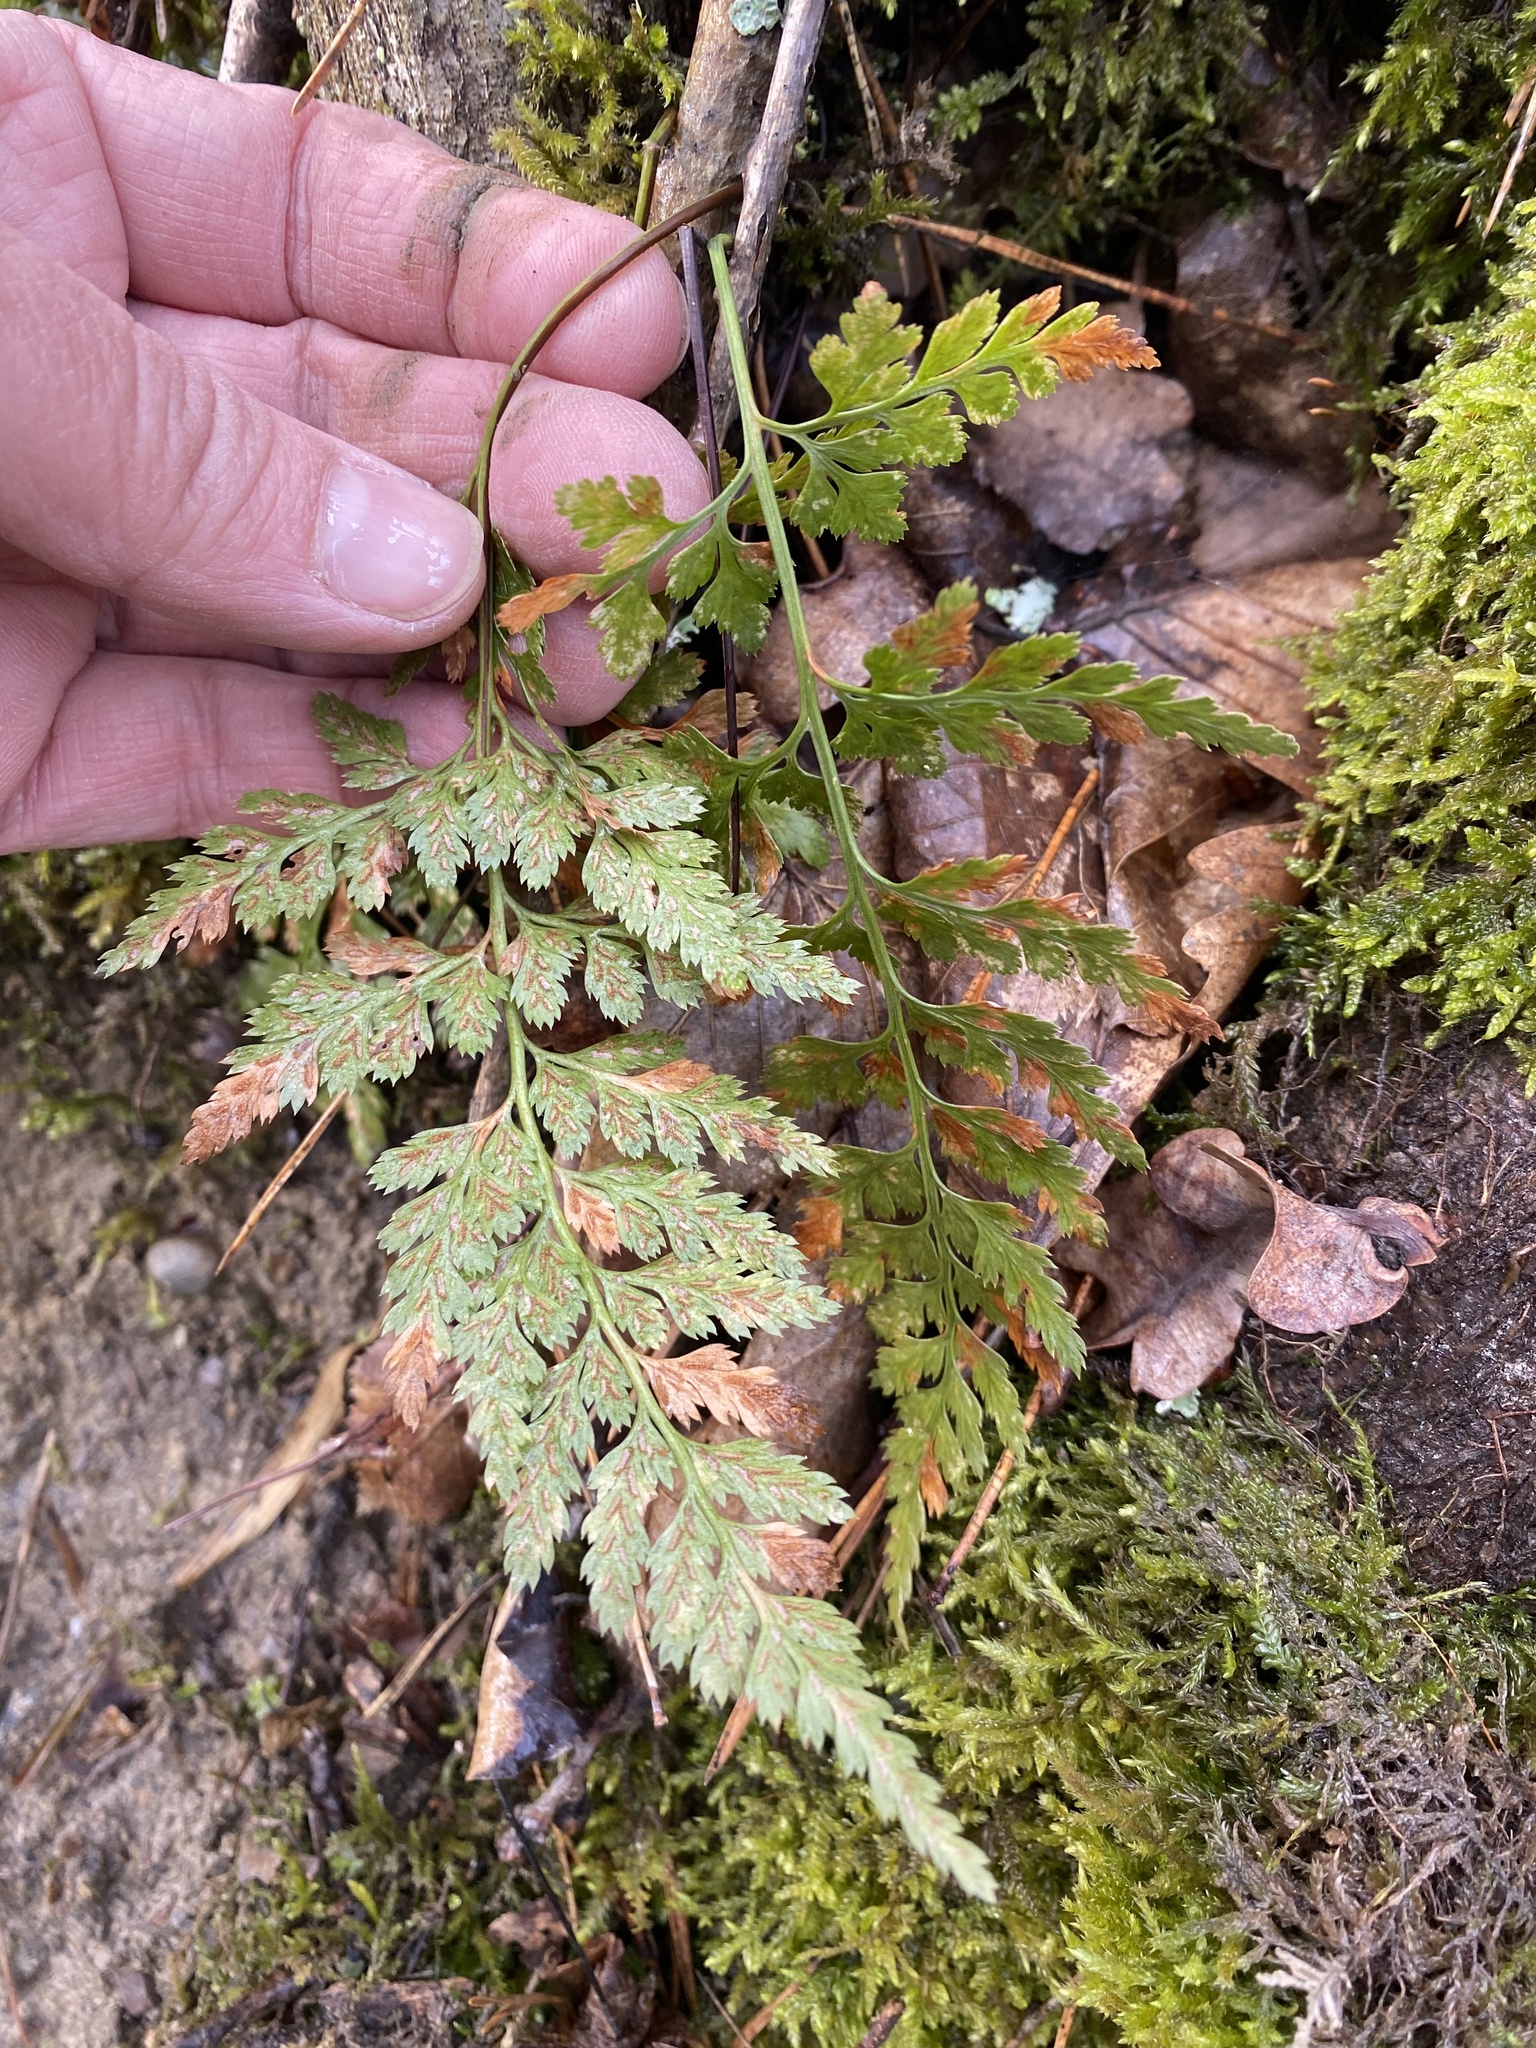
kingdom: Plantae
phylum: Tracheophyta
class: Polypodiopsida
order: Polypodiales
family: Aspleniaceae
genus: Asplenium
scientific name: Asplenium adiantum-nigrum
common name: Black spleenwort
